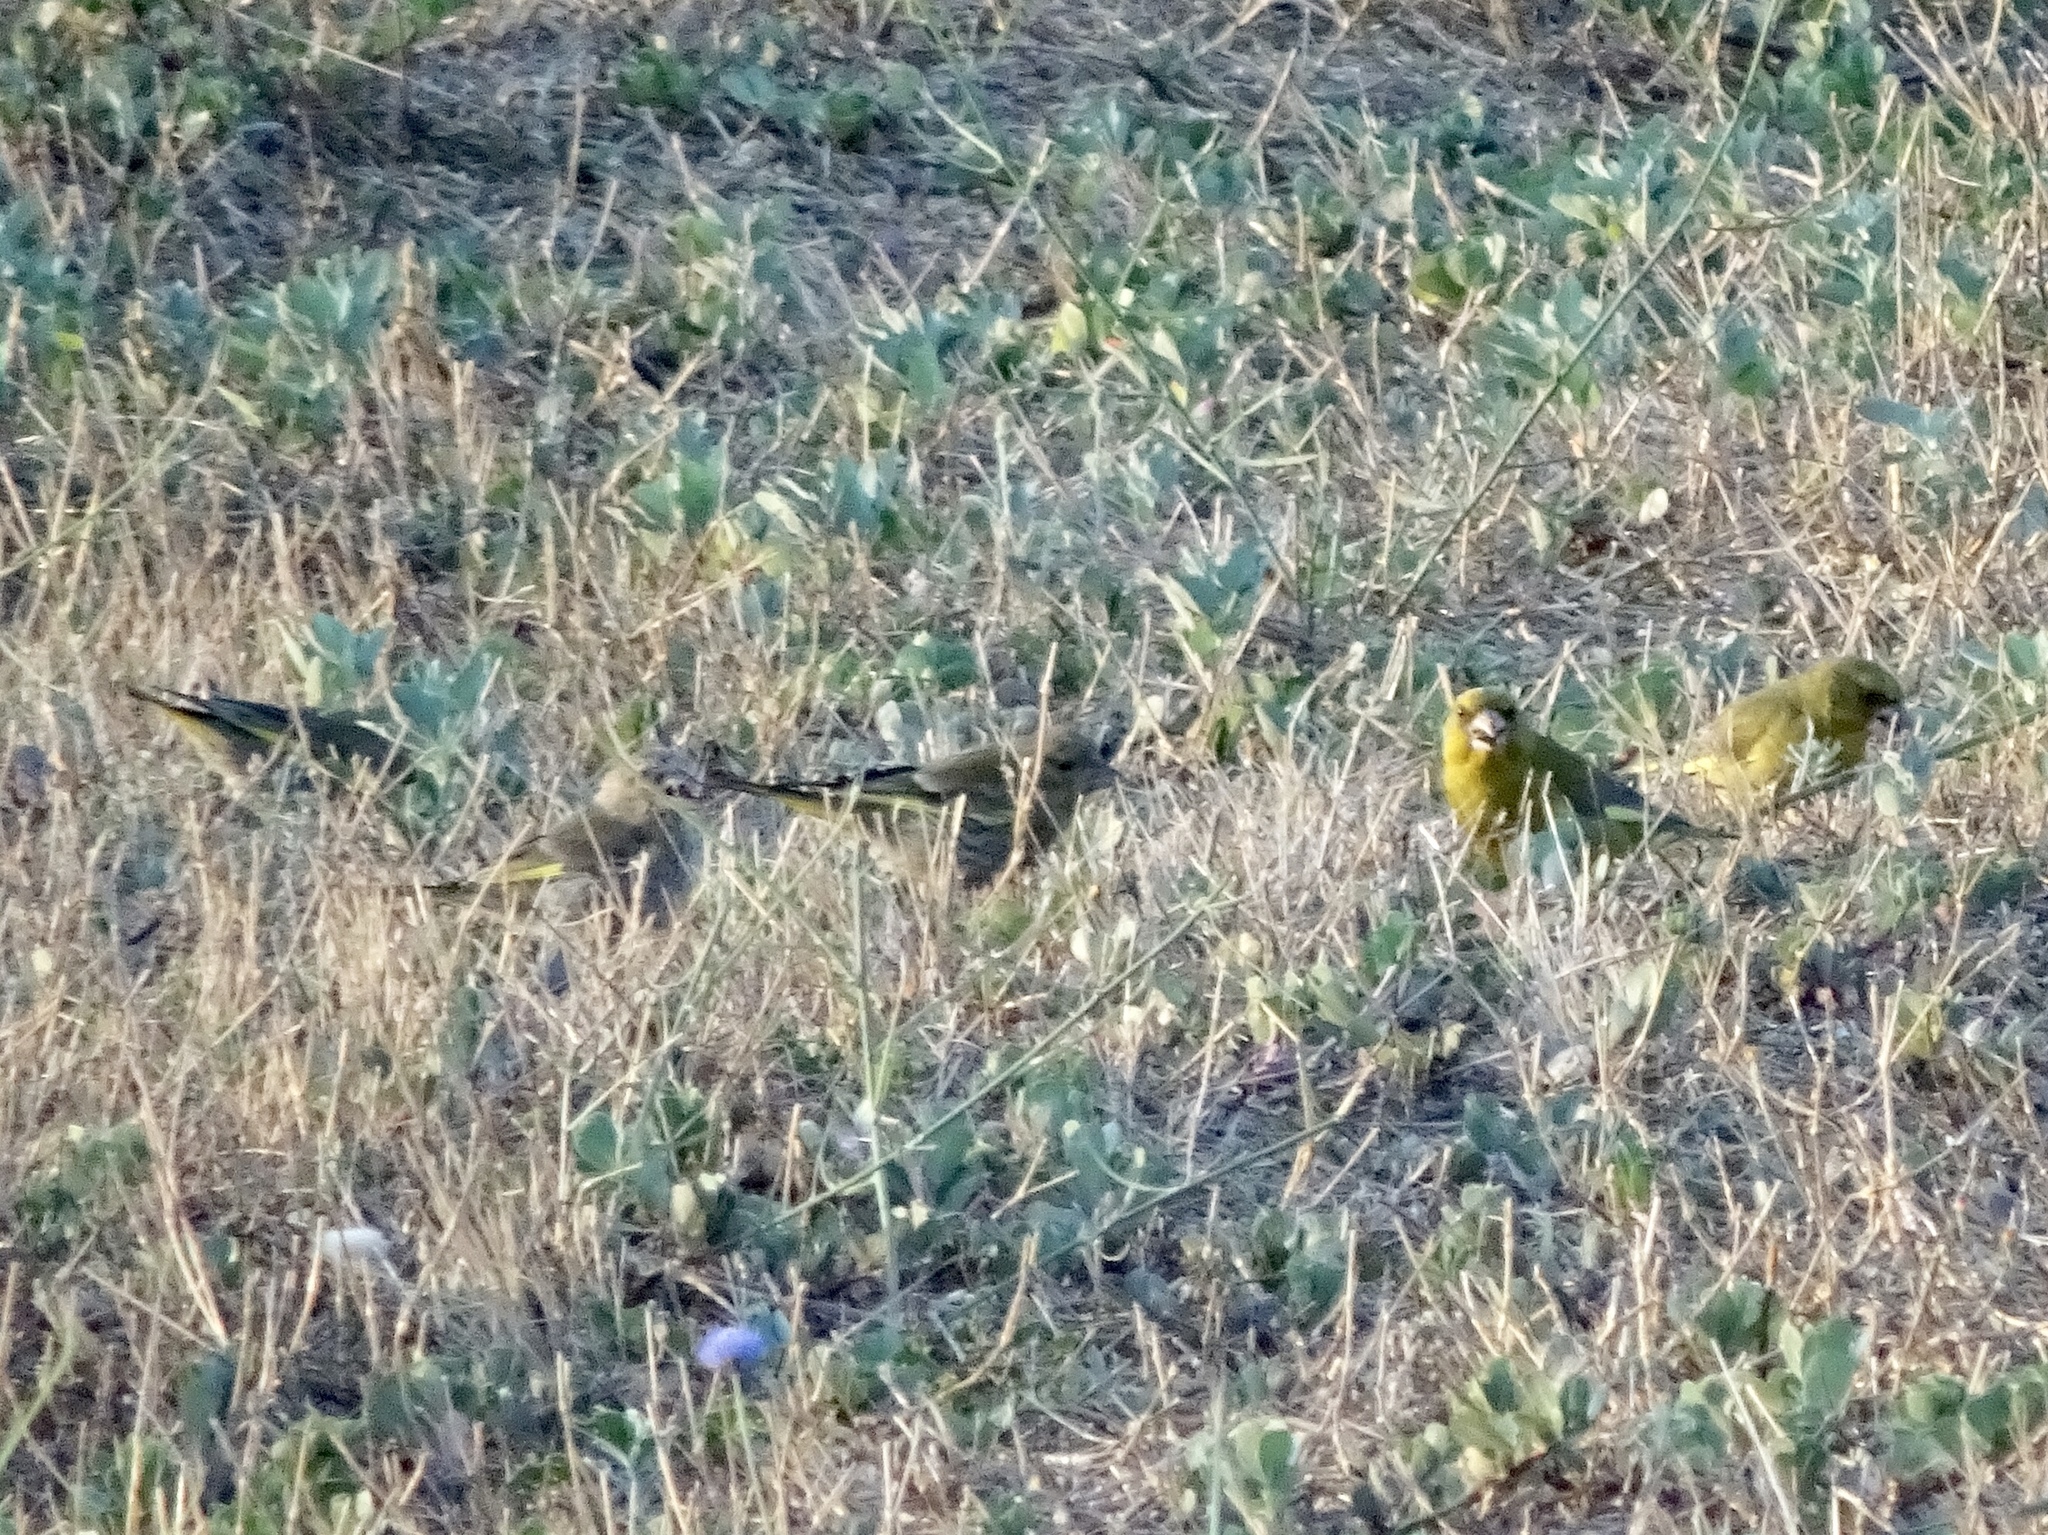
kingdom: Plantae
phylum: Tracheophyta
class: Liliopsida
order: Poales
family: Poaceae
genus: Chloris
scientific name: Chloris chloris
